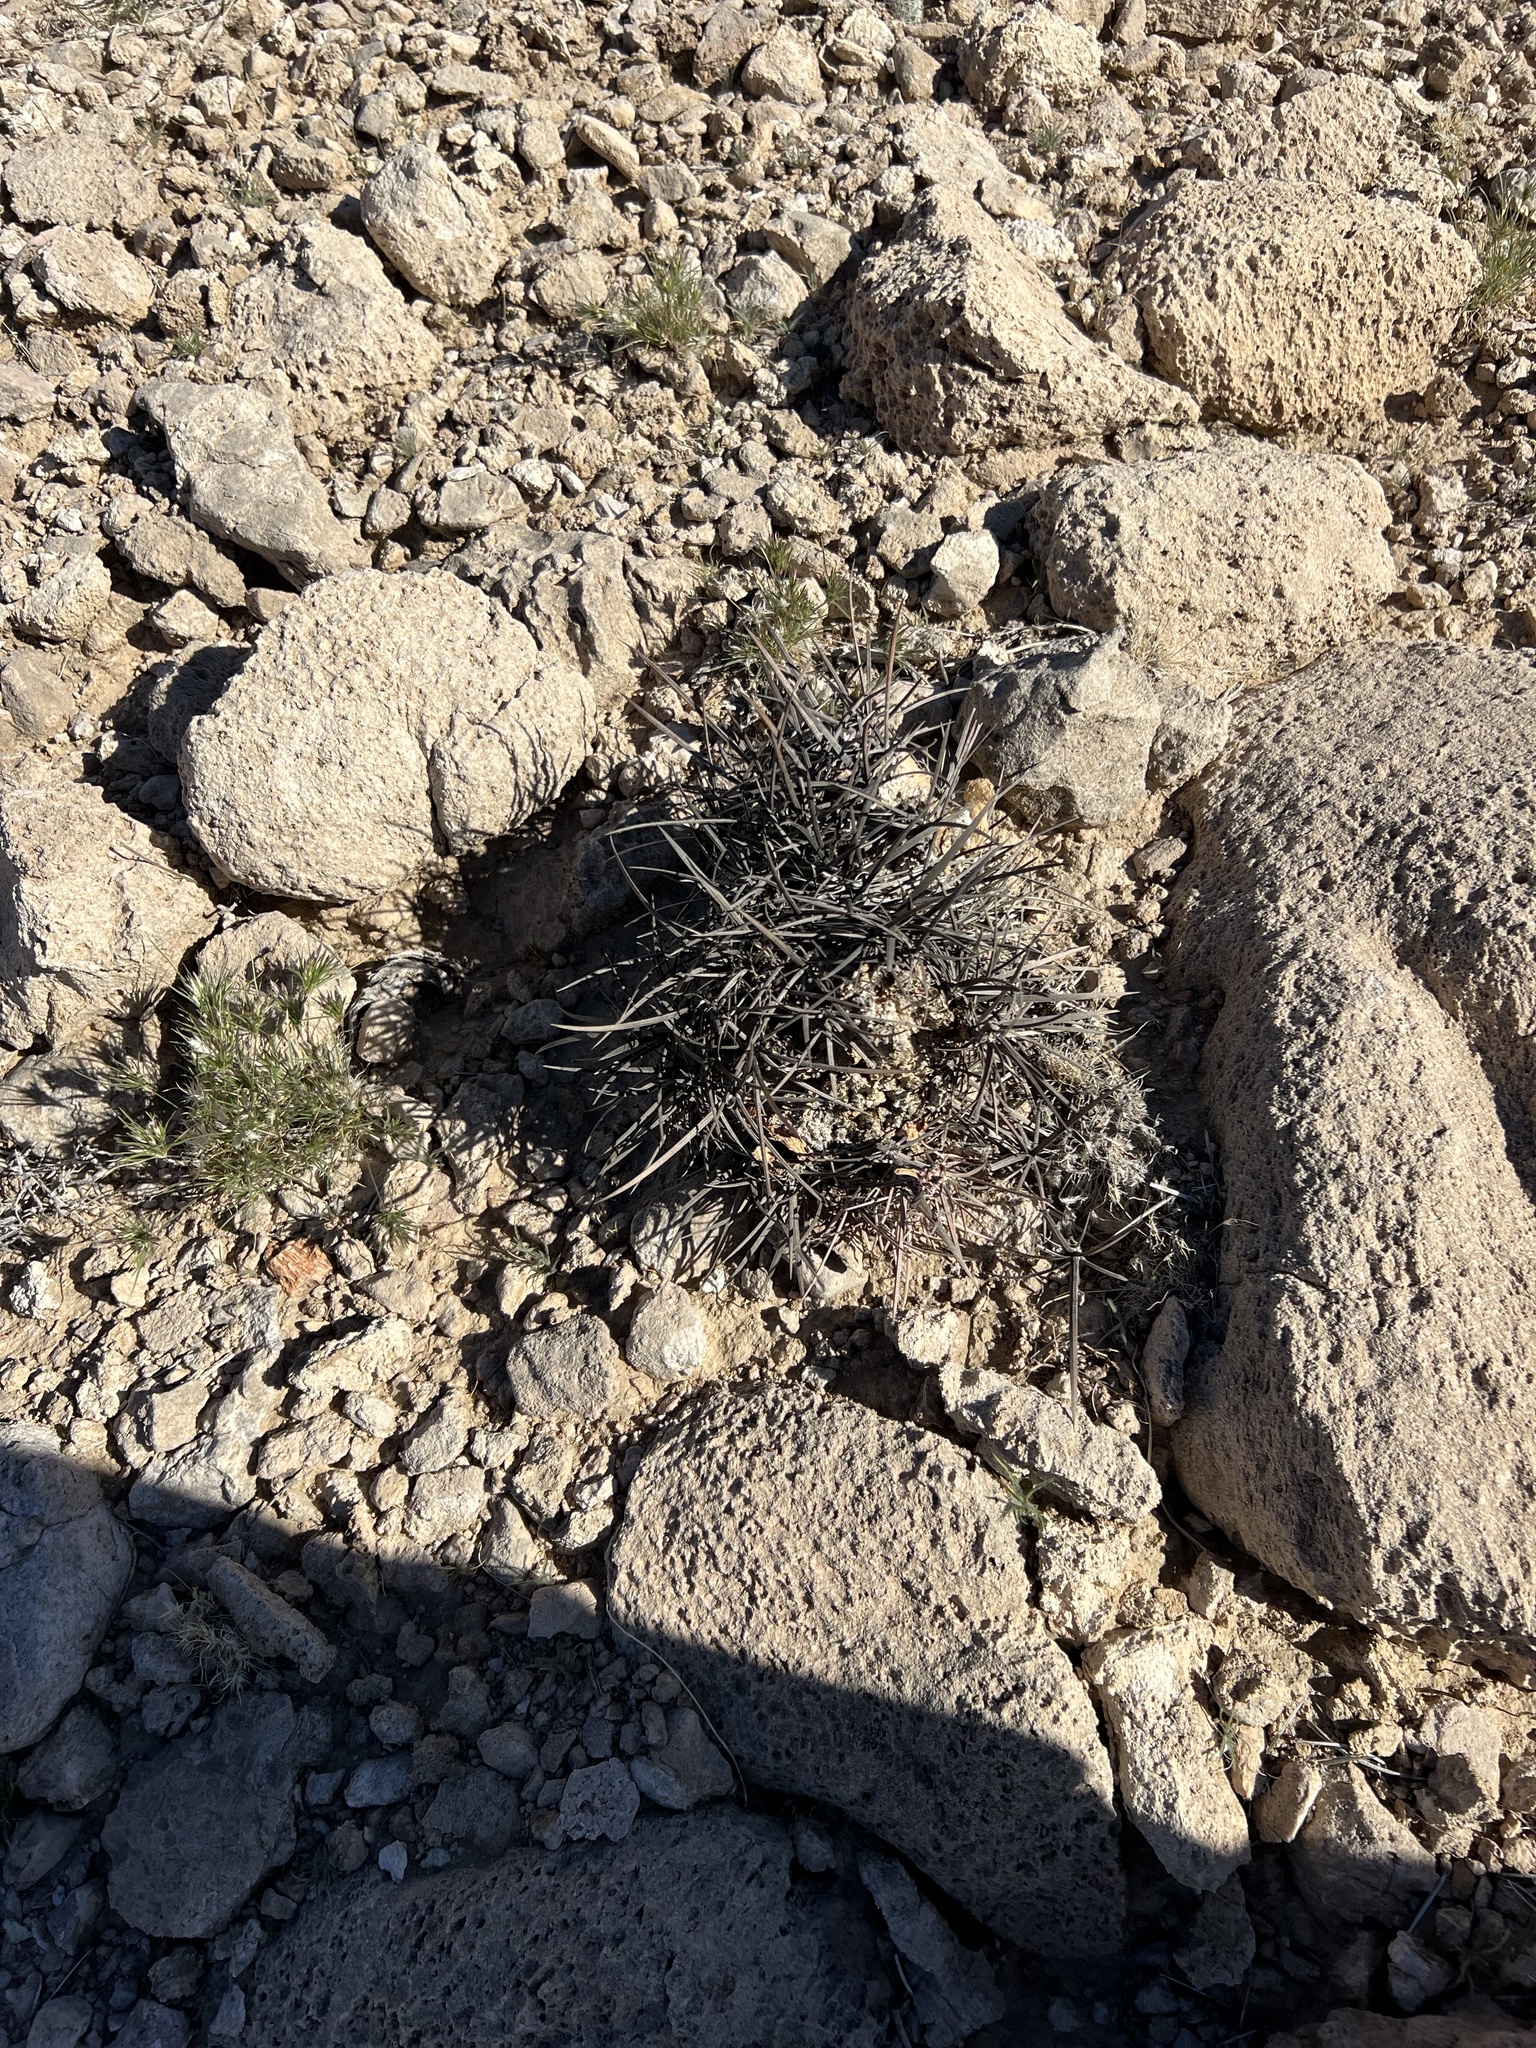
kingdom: Plantae
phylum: Tracheophyta
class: Magnoliopsida
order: Caryophyllales
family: Cactaceae
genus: Sclerocactus
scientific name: Sclerocactus johnsonii
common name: Eight-spine fishhook cactus
